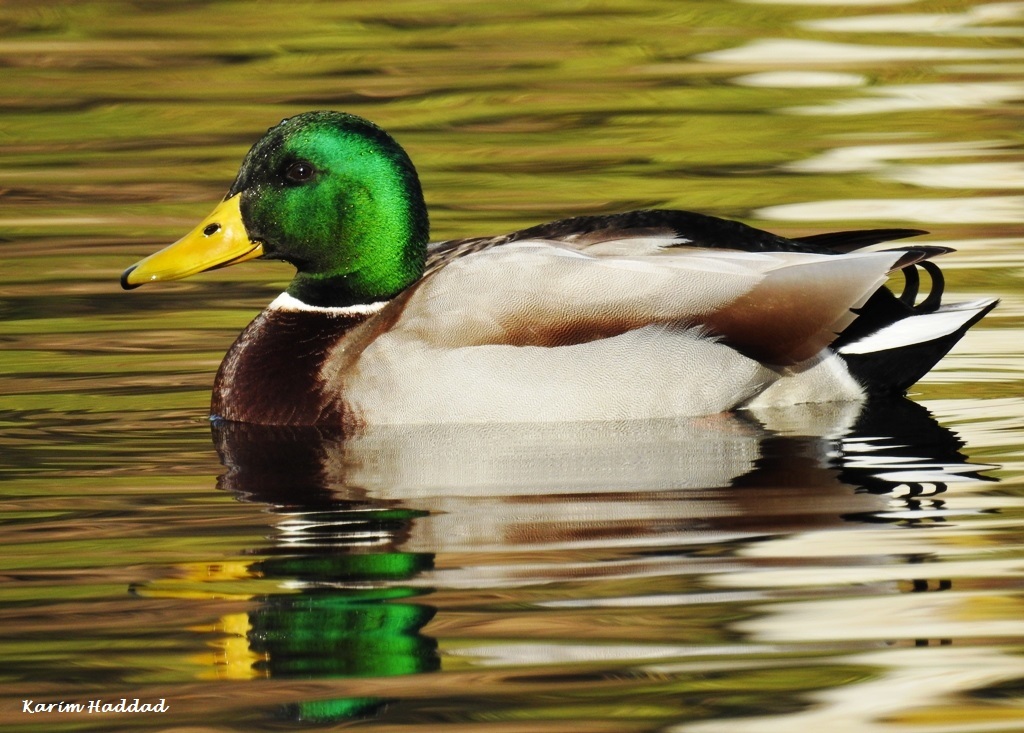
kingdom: Animalia
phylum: Chordata
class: Aves
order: Anseriformes
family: Anatidae
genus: Anas
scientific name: Anas platyrhynchos
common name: Mallard
